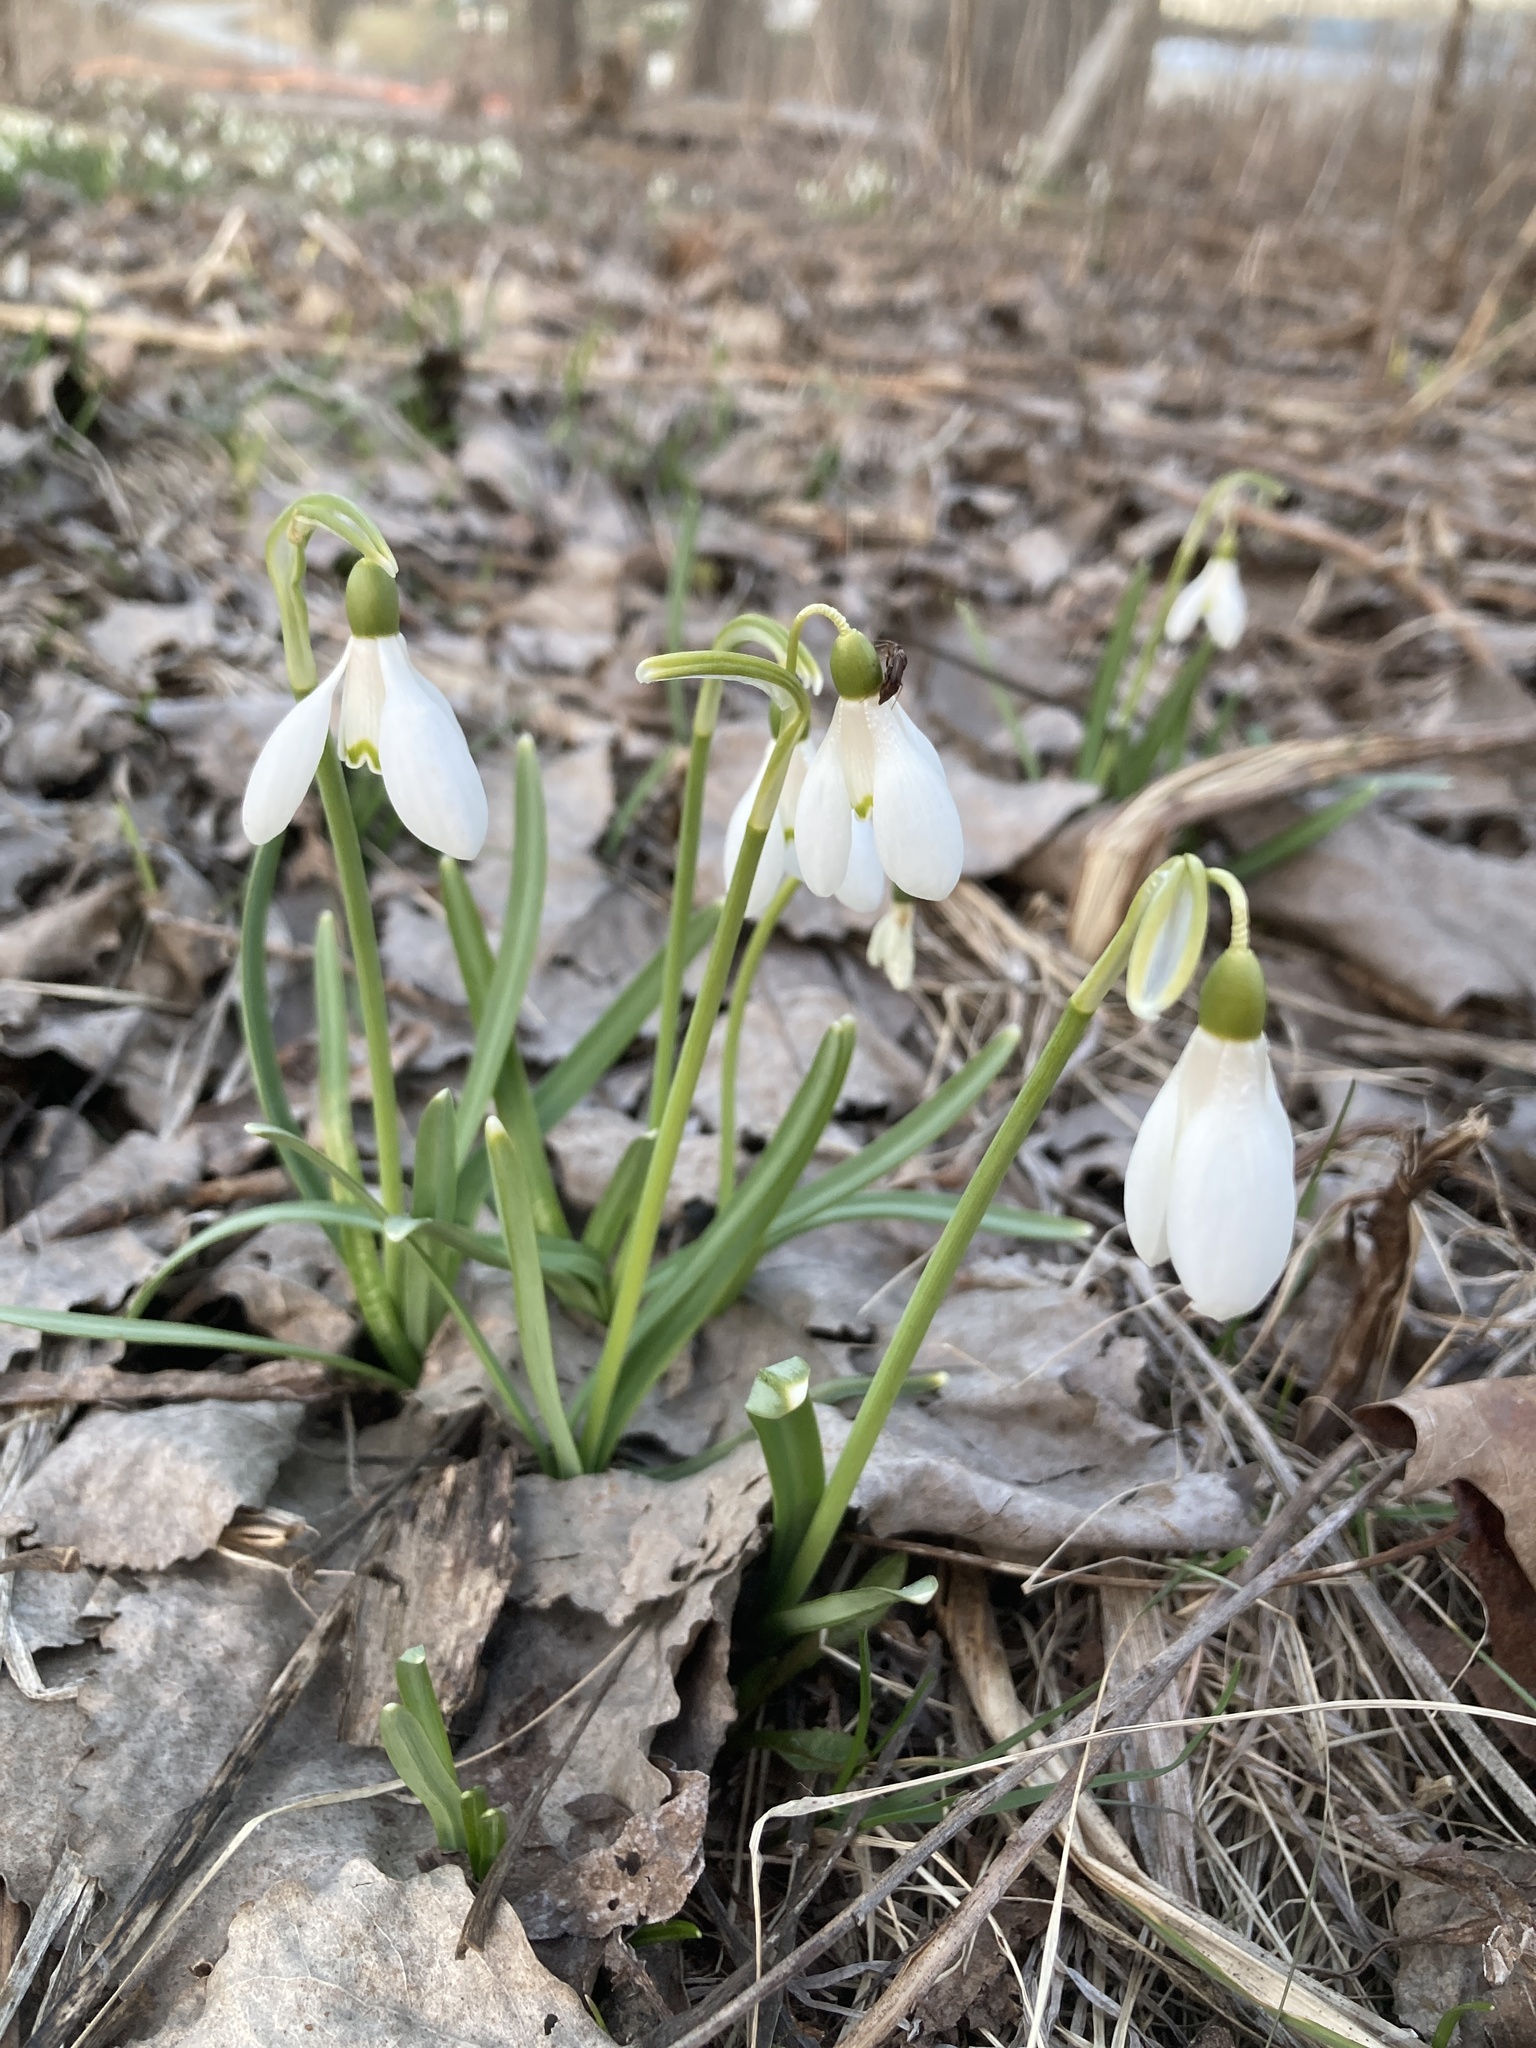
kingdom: Plantae
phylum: Tracheophyta
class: Liliopsida
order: Asparagales
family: Amaryllidaceae
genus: Galanthus
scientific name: Galanthus nivalis
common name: Snowdrop
